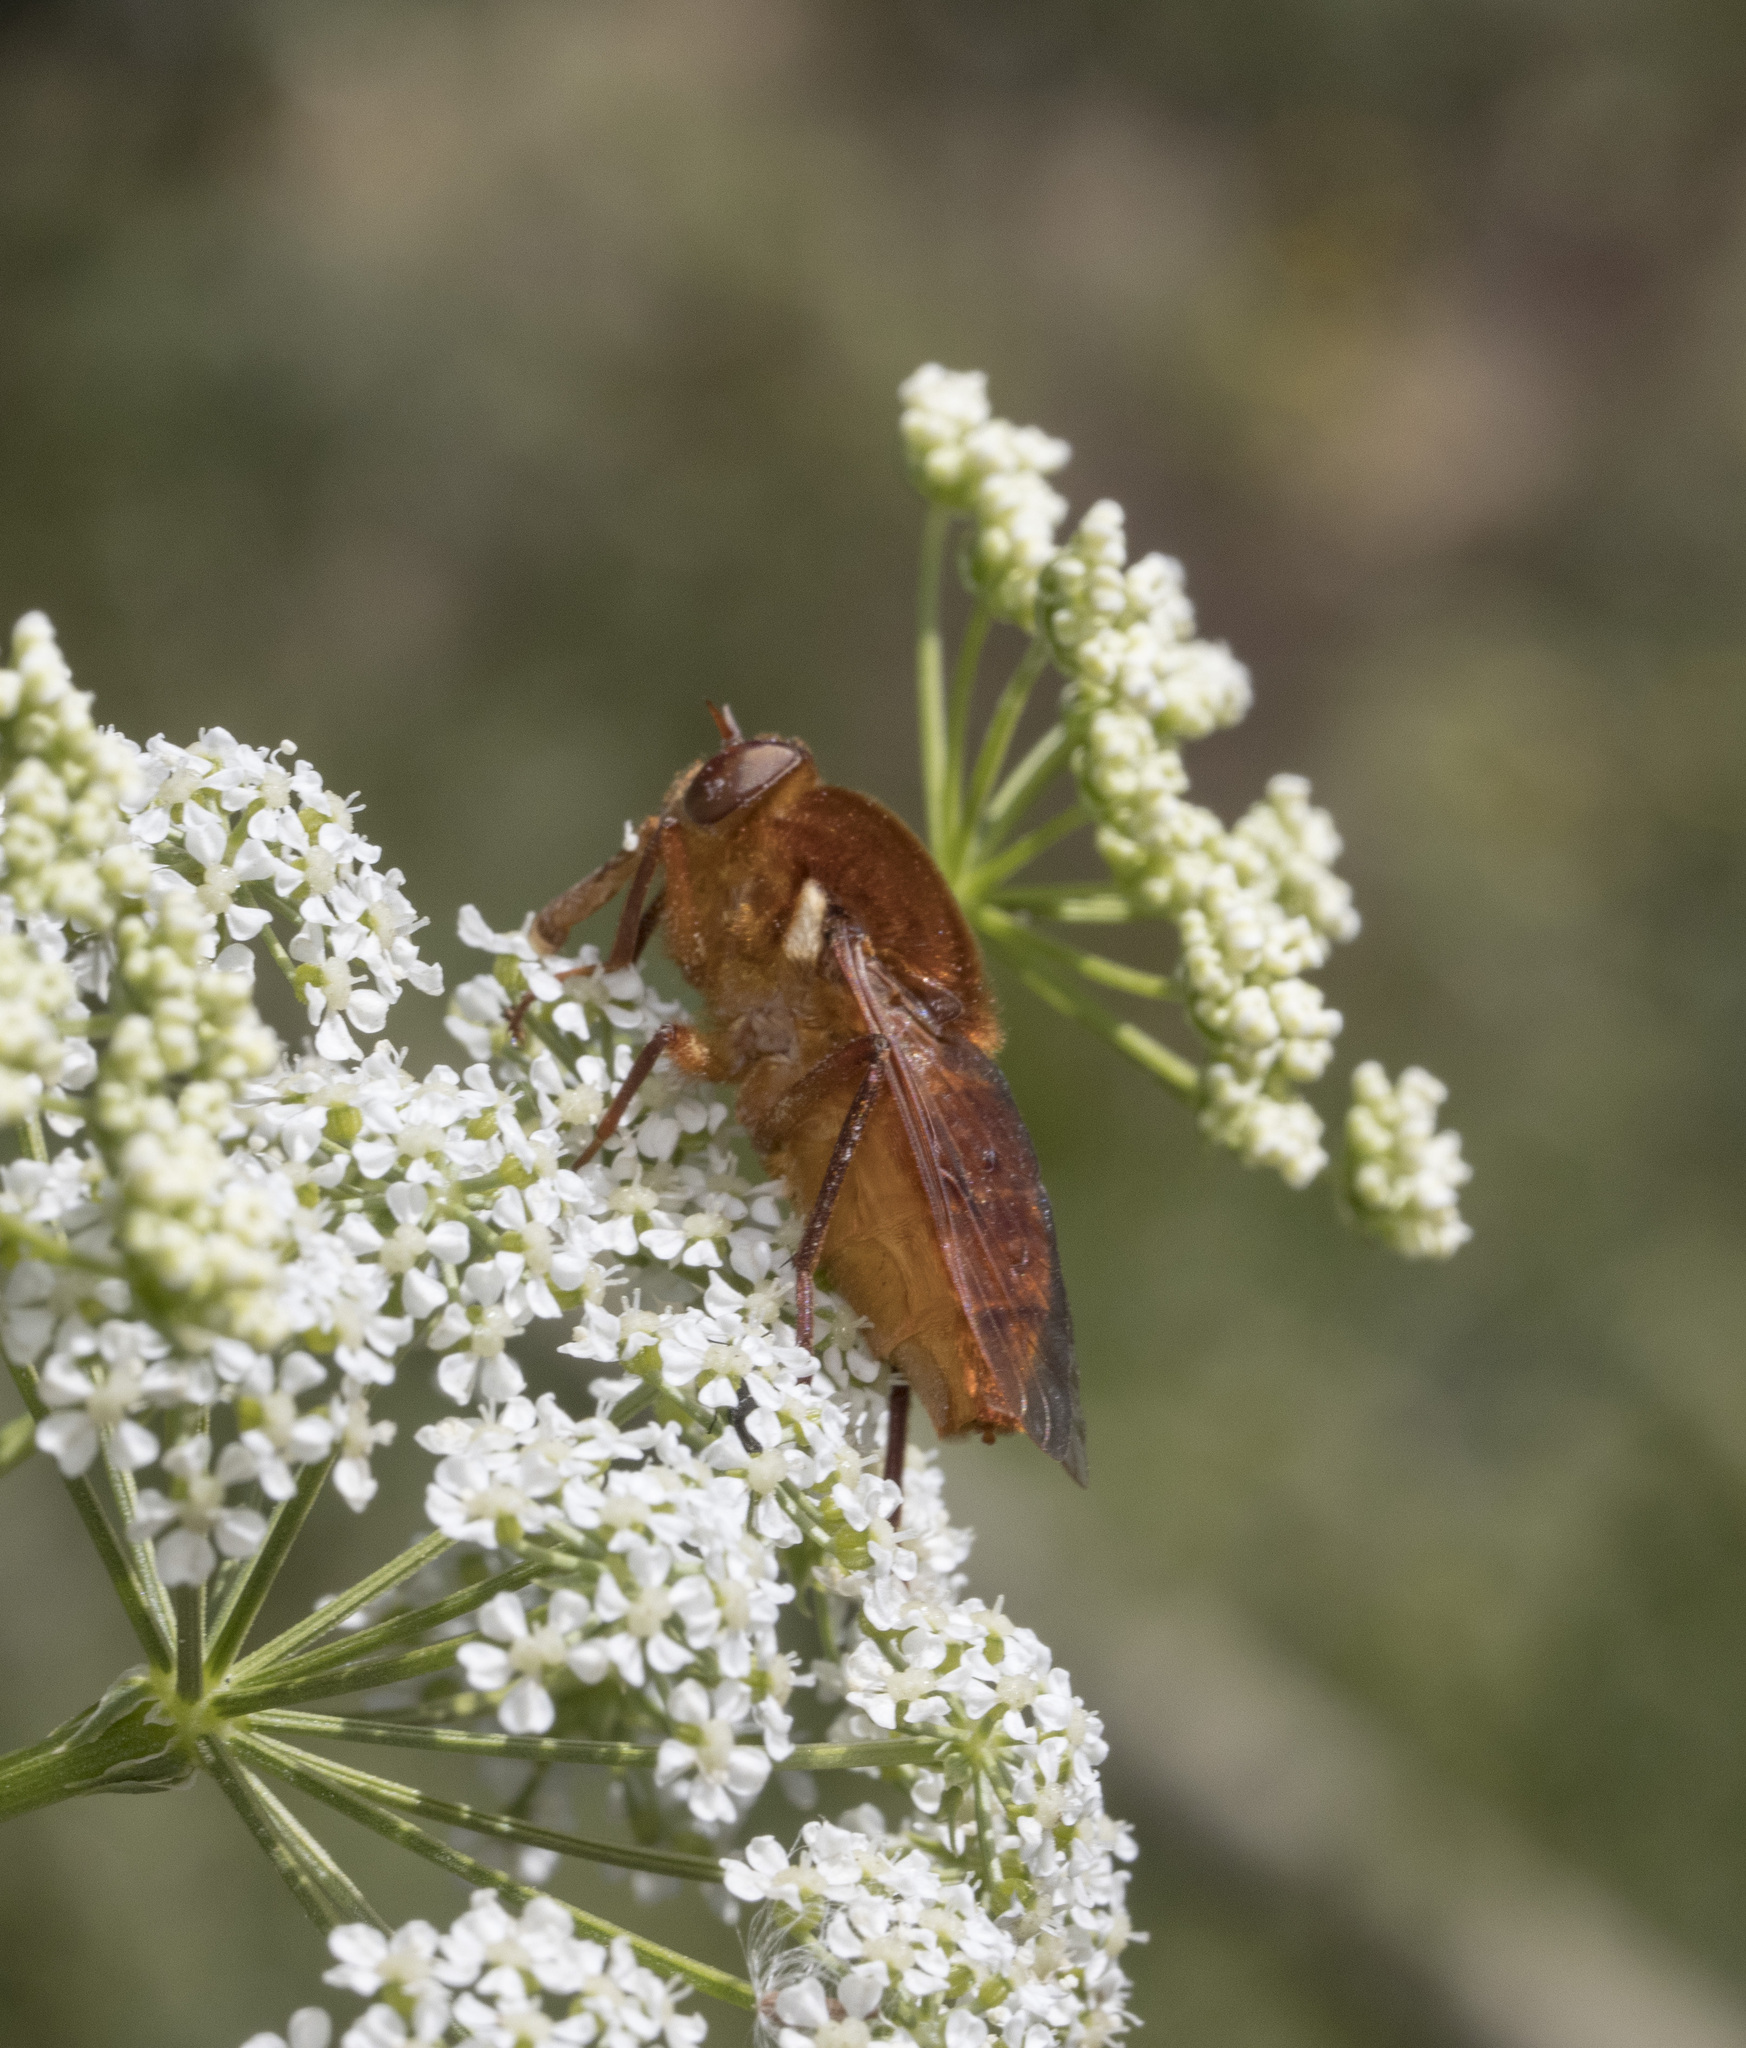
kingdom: Animalia
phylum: Arthropoda
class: Insecta
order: Diptera
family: Rhagionidae
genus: Pelecorhynchus
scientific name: Pelecorhynchus vulpes
